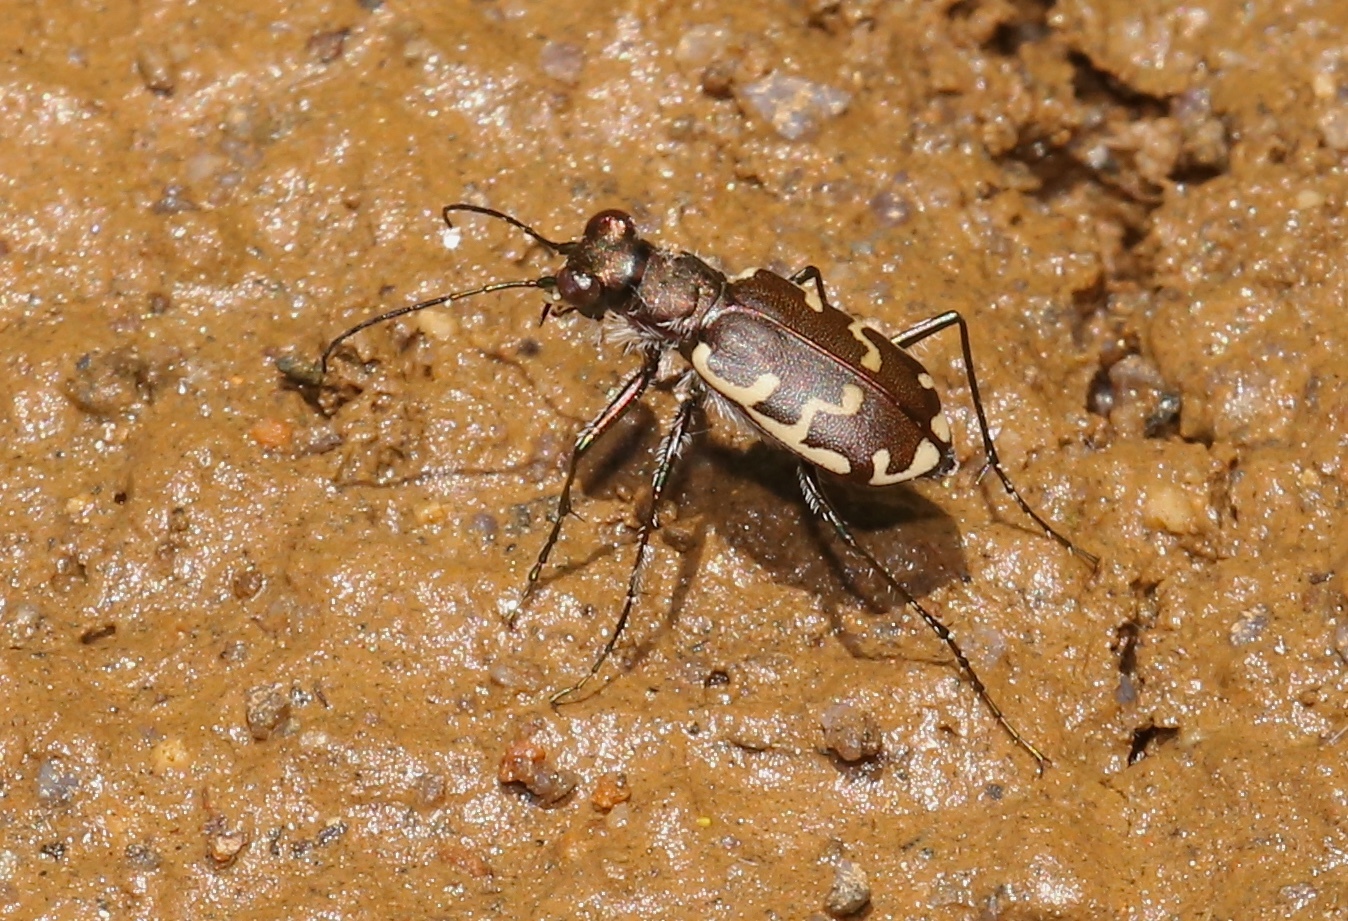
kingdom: Animalia
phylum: Arthropoda
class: Insecta
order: Coleoptera
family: Carabidae
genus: Cicindela
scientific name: Cicindela repanda
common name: Bronzed tiger beetle
